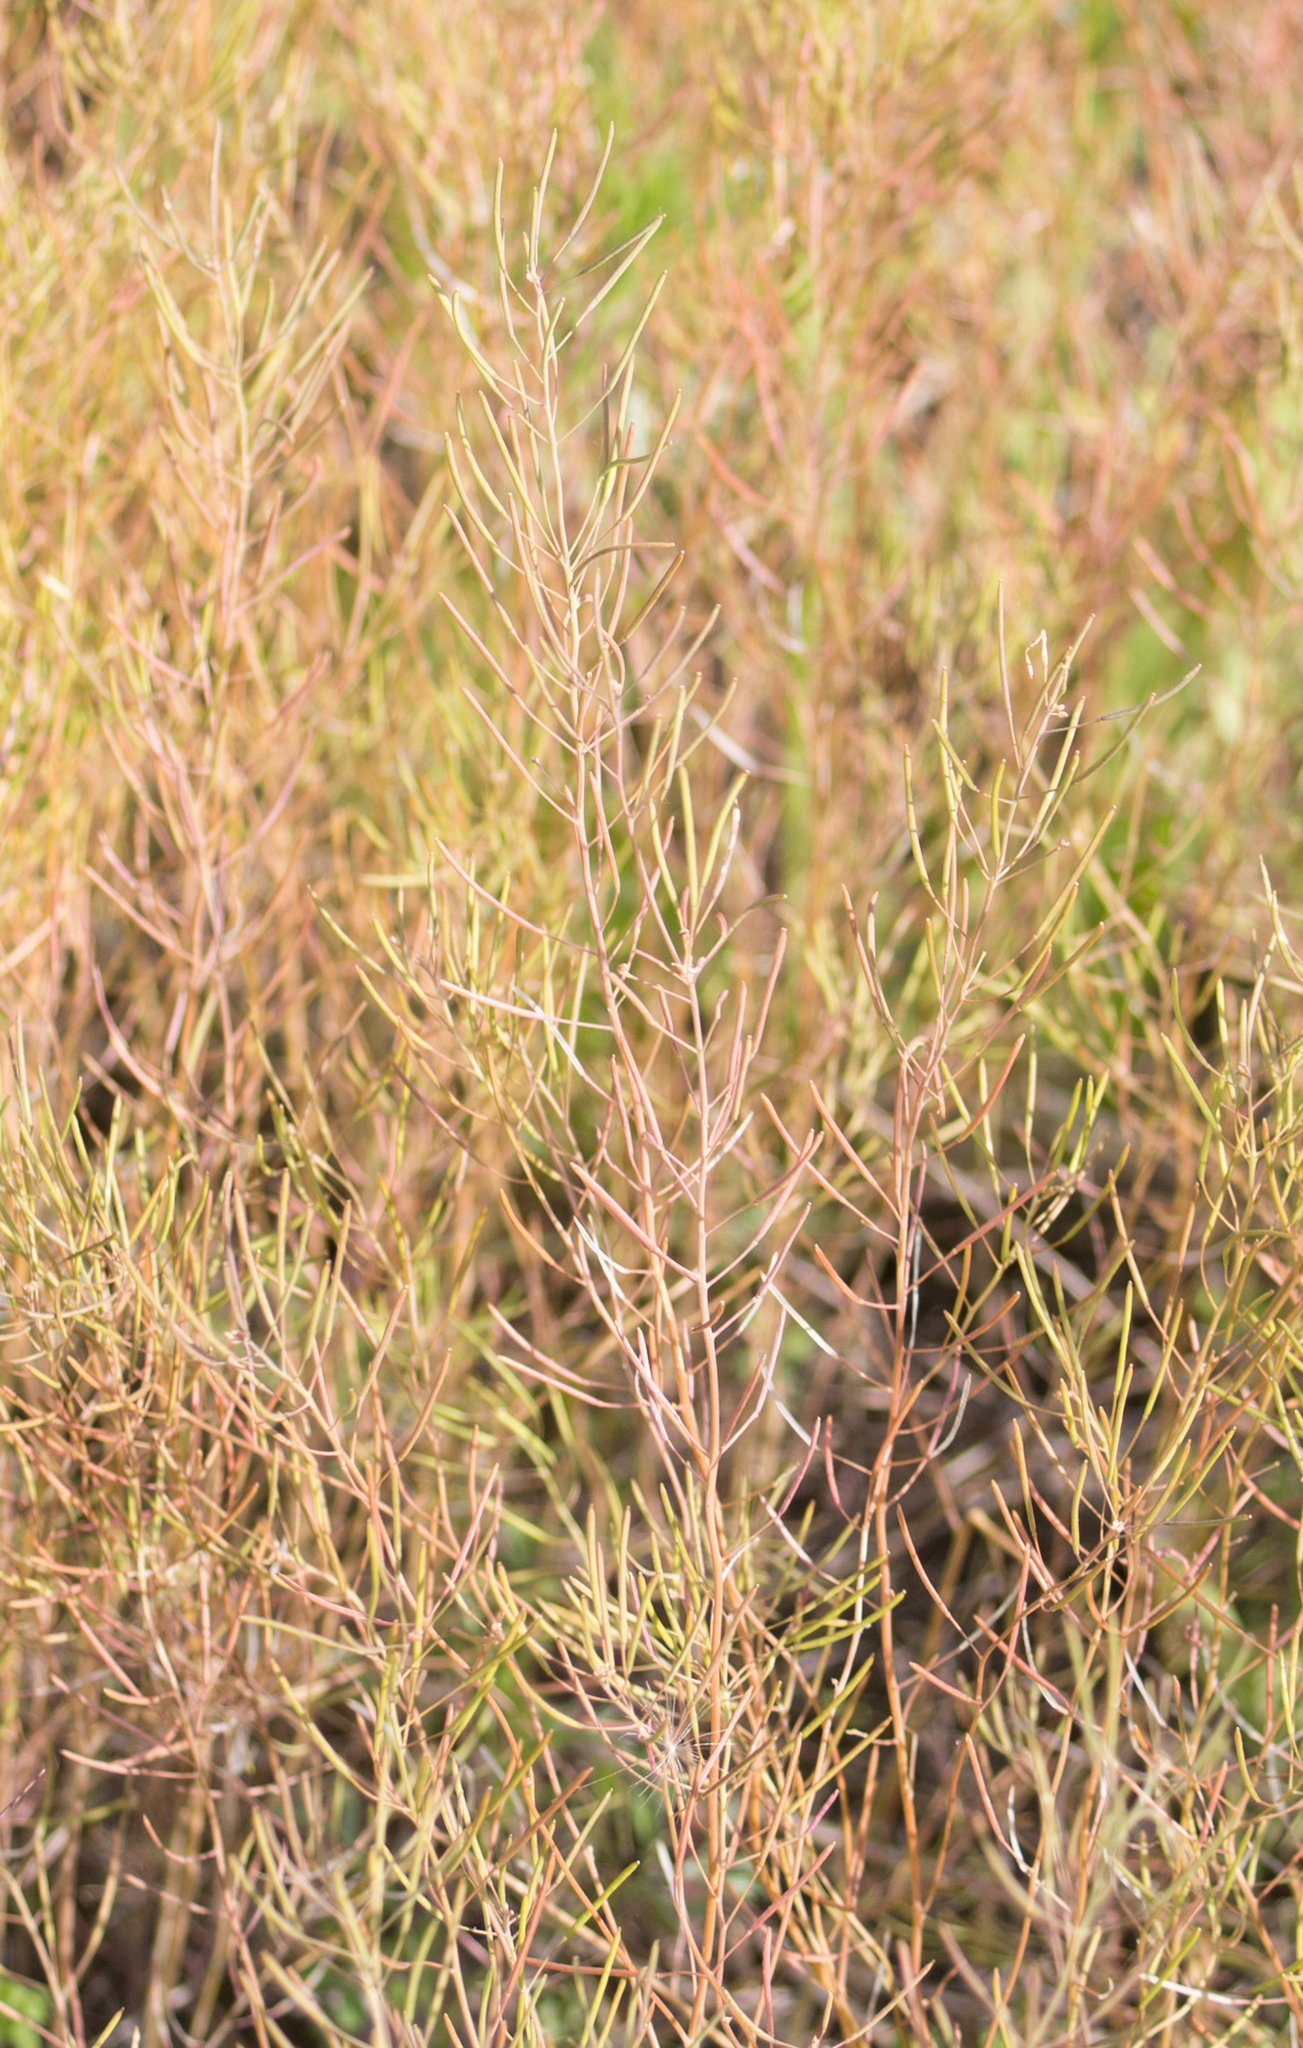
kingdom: Plantae
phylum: Tracheophyta
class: Magnoliopsida
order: Brassicales
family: Brassicaceae
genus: Arabidopsis
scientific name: Arabidopsis thaliana
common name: Thale cress
